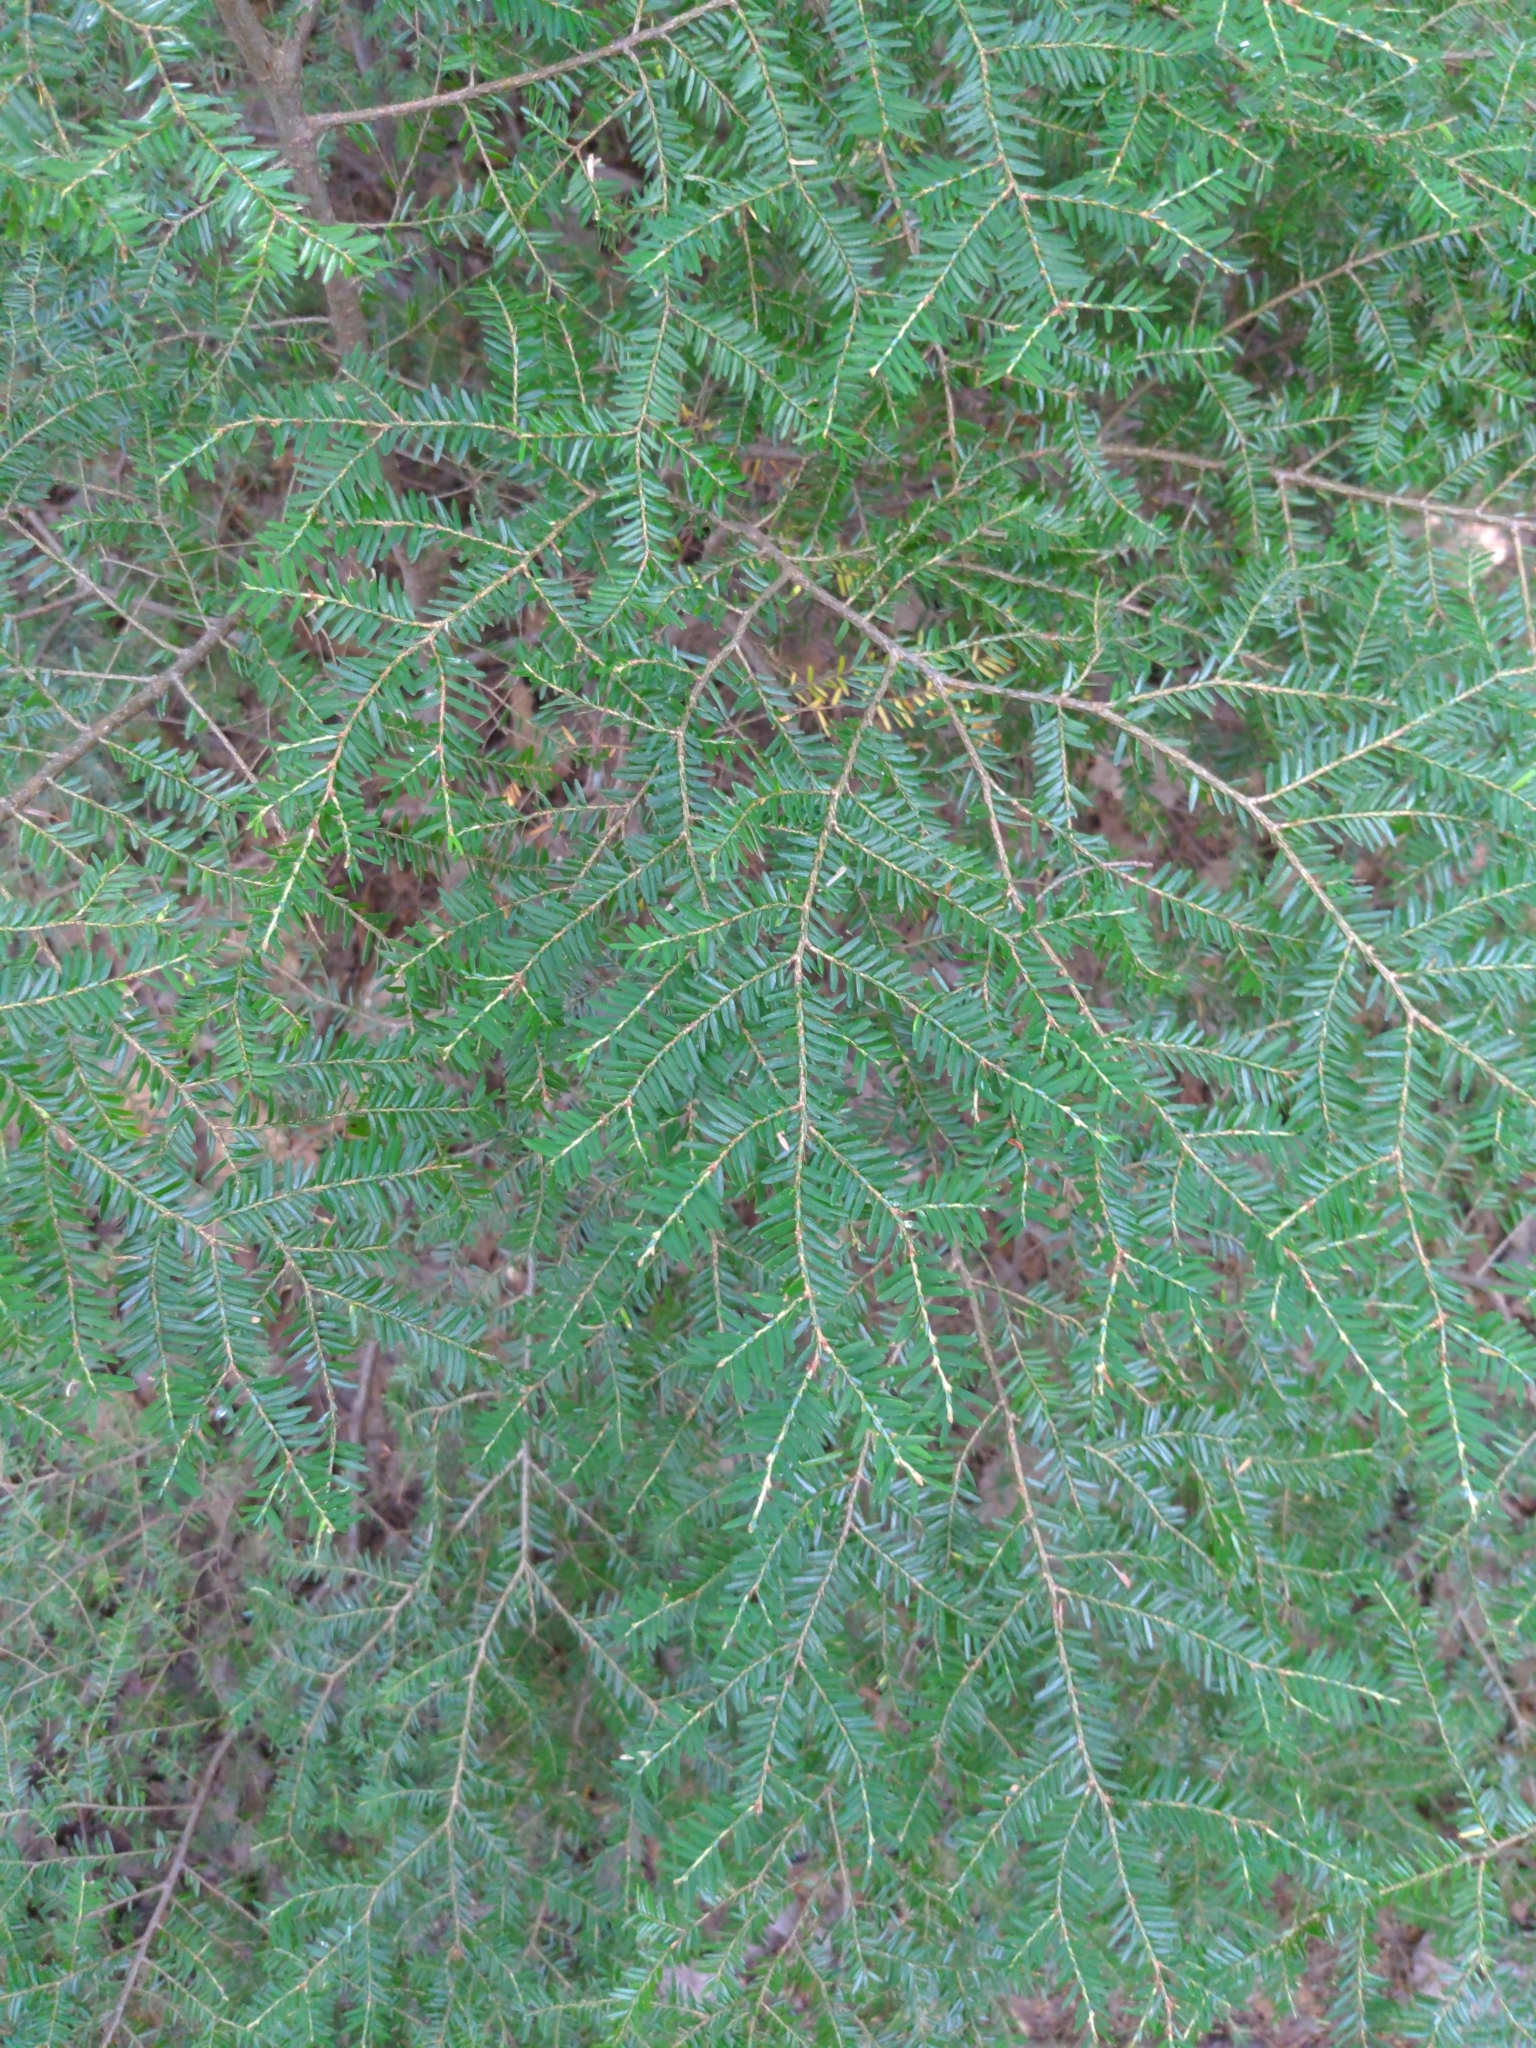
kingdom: Plantae
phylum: Tracheophyta
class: Pinopsida
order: Pinales
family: Pinaceae
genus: Tsuga
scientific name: Tsuga canadensis
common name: Eastern hemlock
